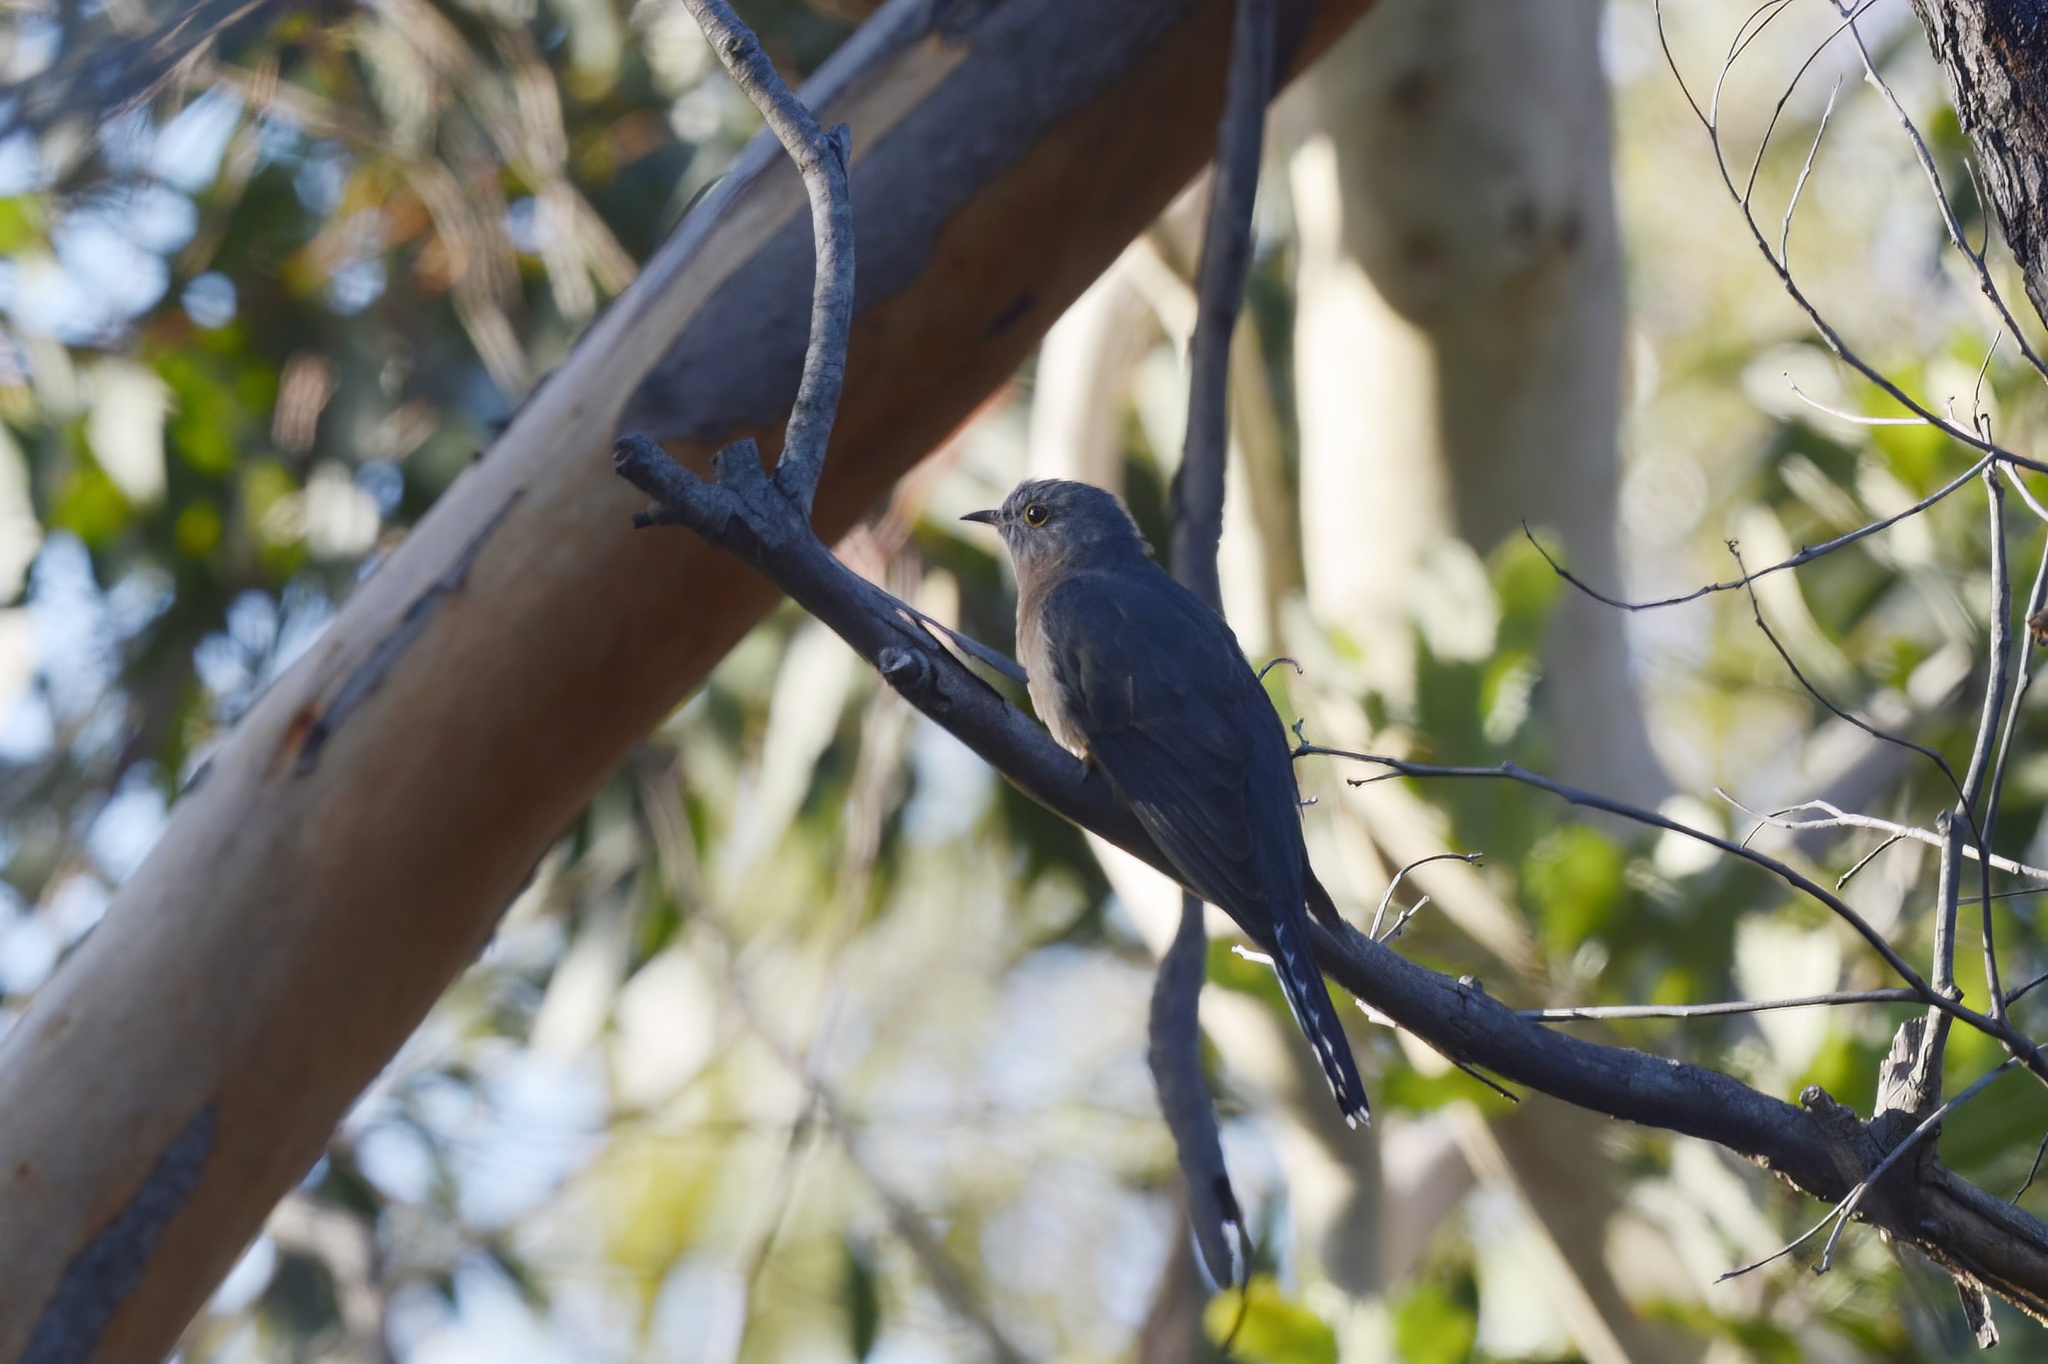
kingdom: Animalia
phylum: Chordata
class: Aves
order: Cuculiformes
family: Cuculidae
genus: Cacomantis
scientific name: Cacomantis flabelliformis
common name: Fan-tailed cuckoo
